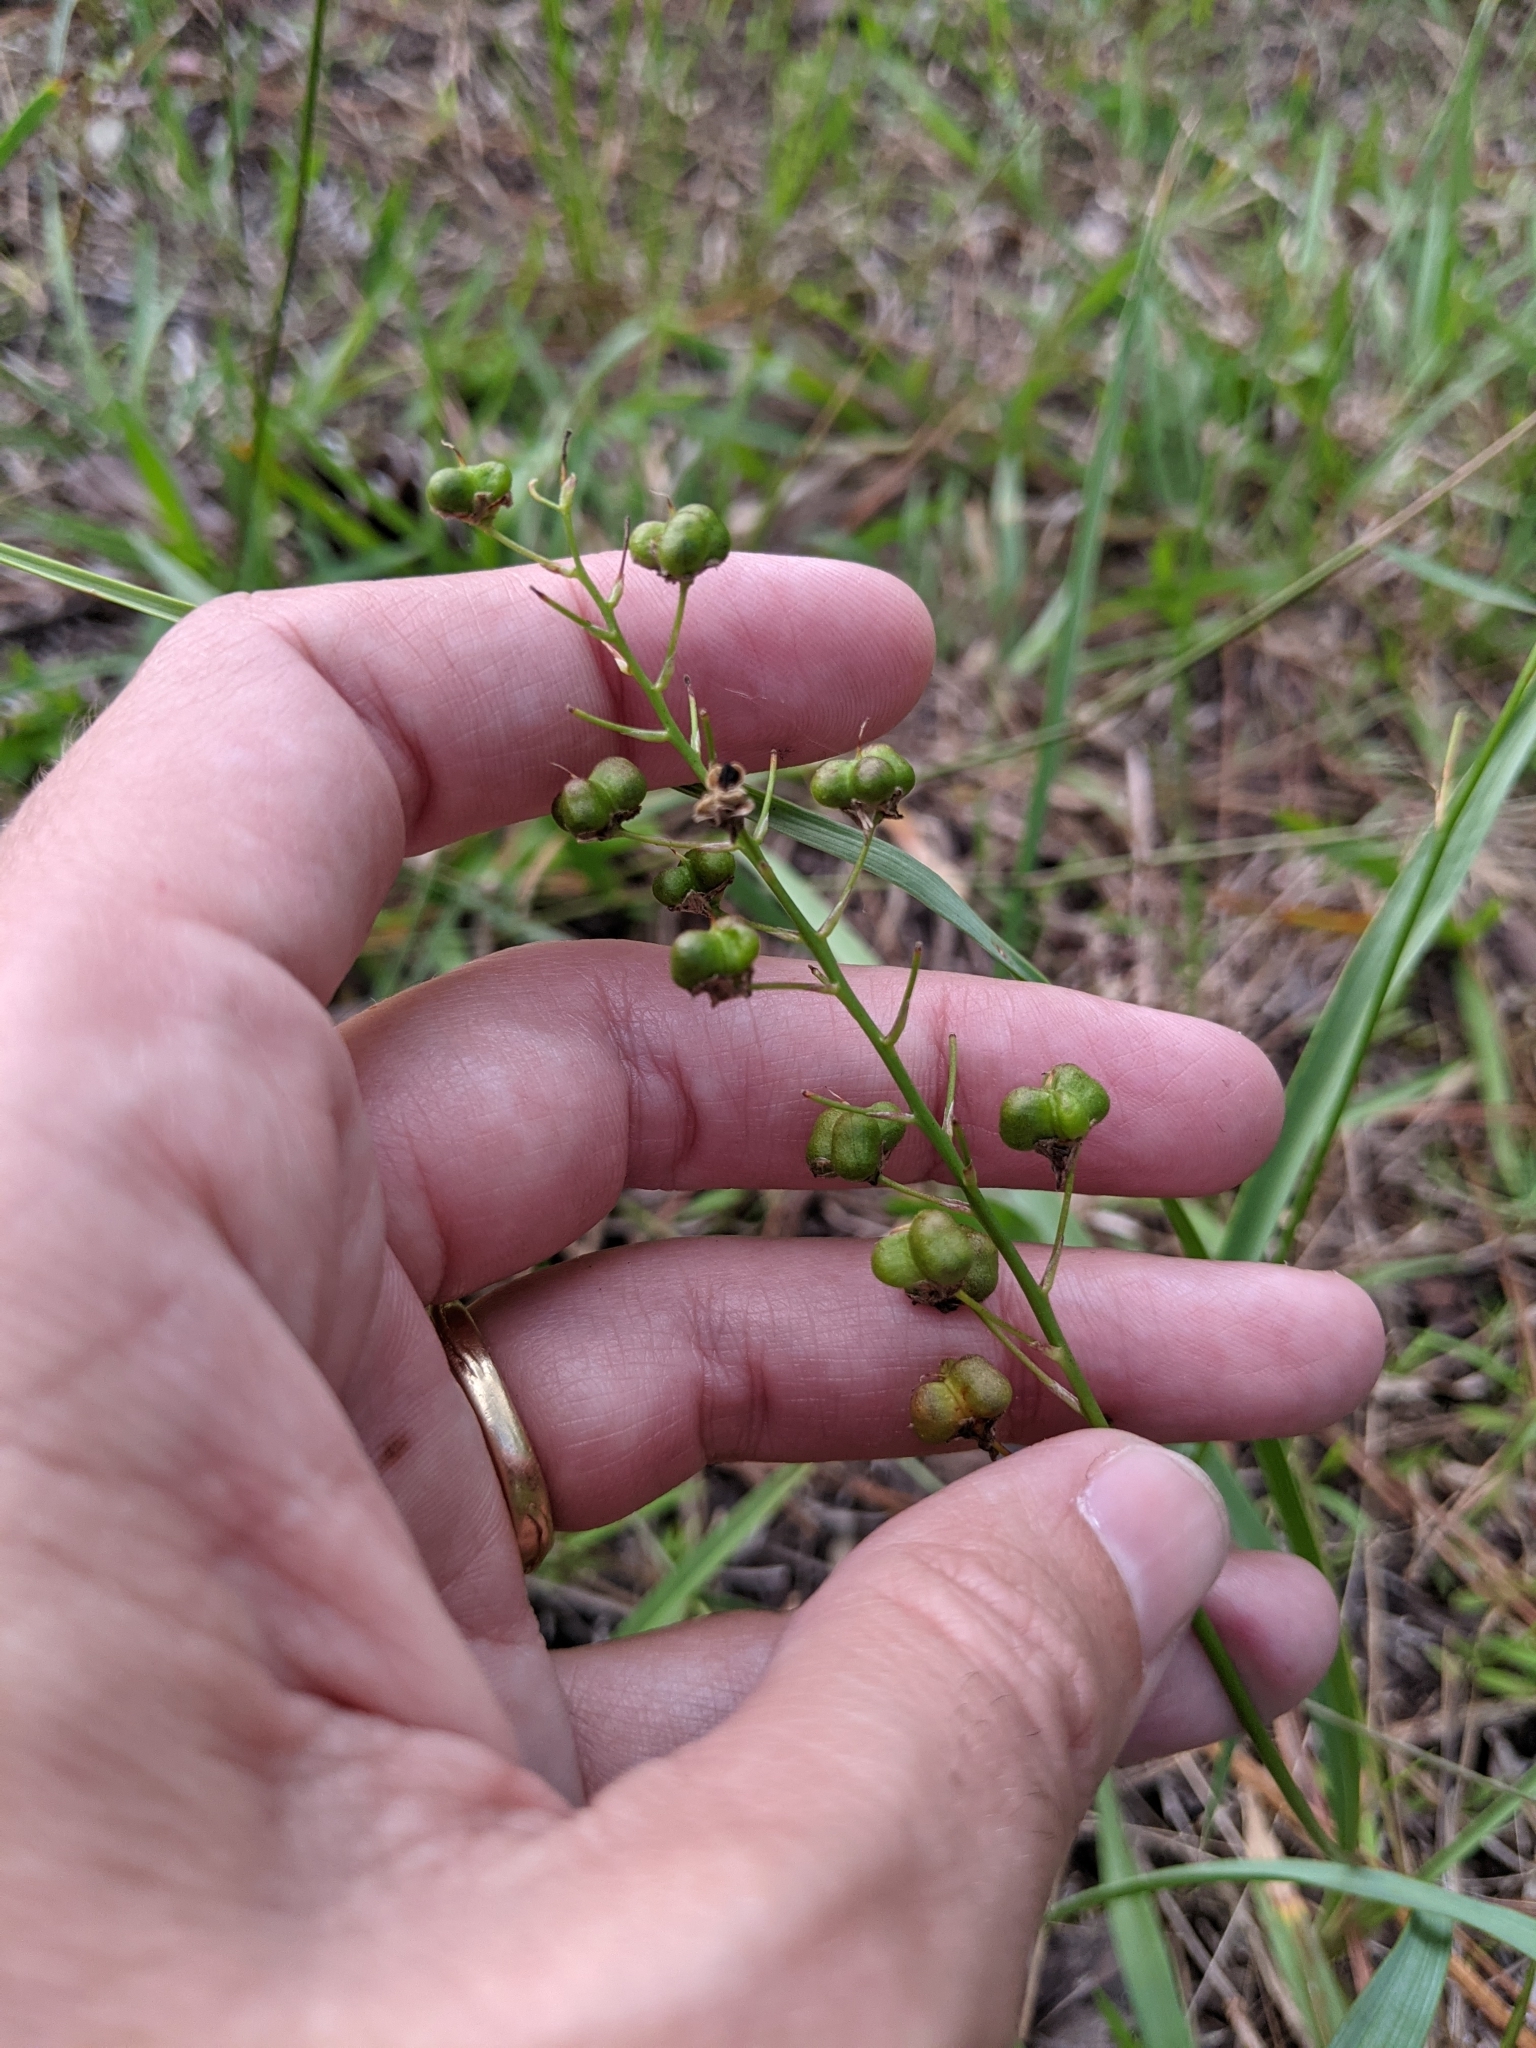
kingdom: Plantae
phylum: Tracheophyta
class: Liliopsida
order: Asparagales
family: Asparagaceae
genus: Schoenolirion
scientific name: Schoenolirion croceum
